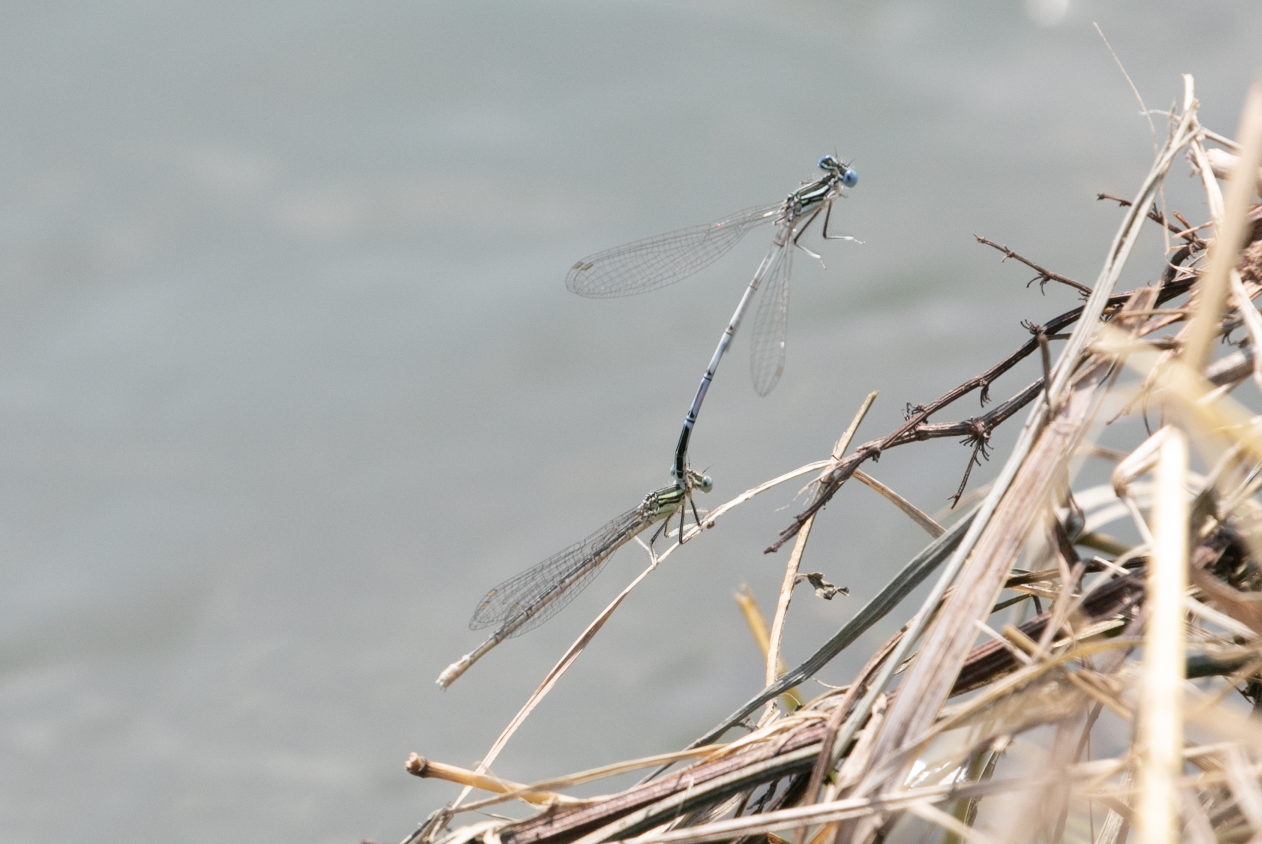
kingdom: Animalia
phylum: Arthropoda
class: Insecta
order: Odonata
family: Platycnemididae
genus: Platycnemis
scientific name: Platycnemis pennipes
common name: White-legged damselfly
